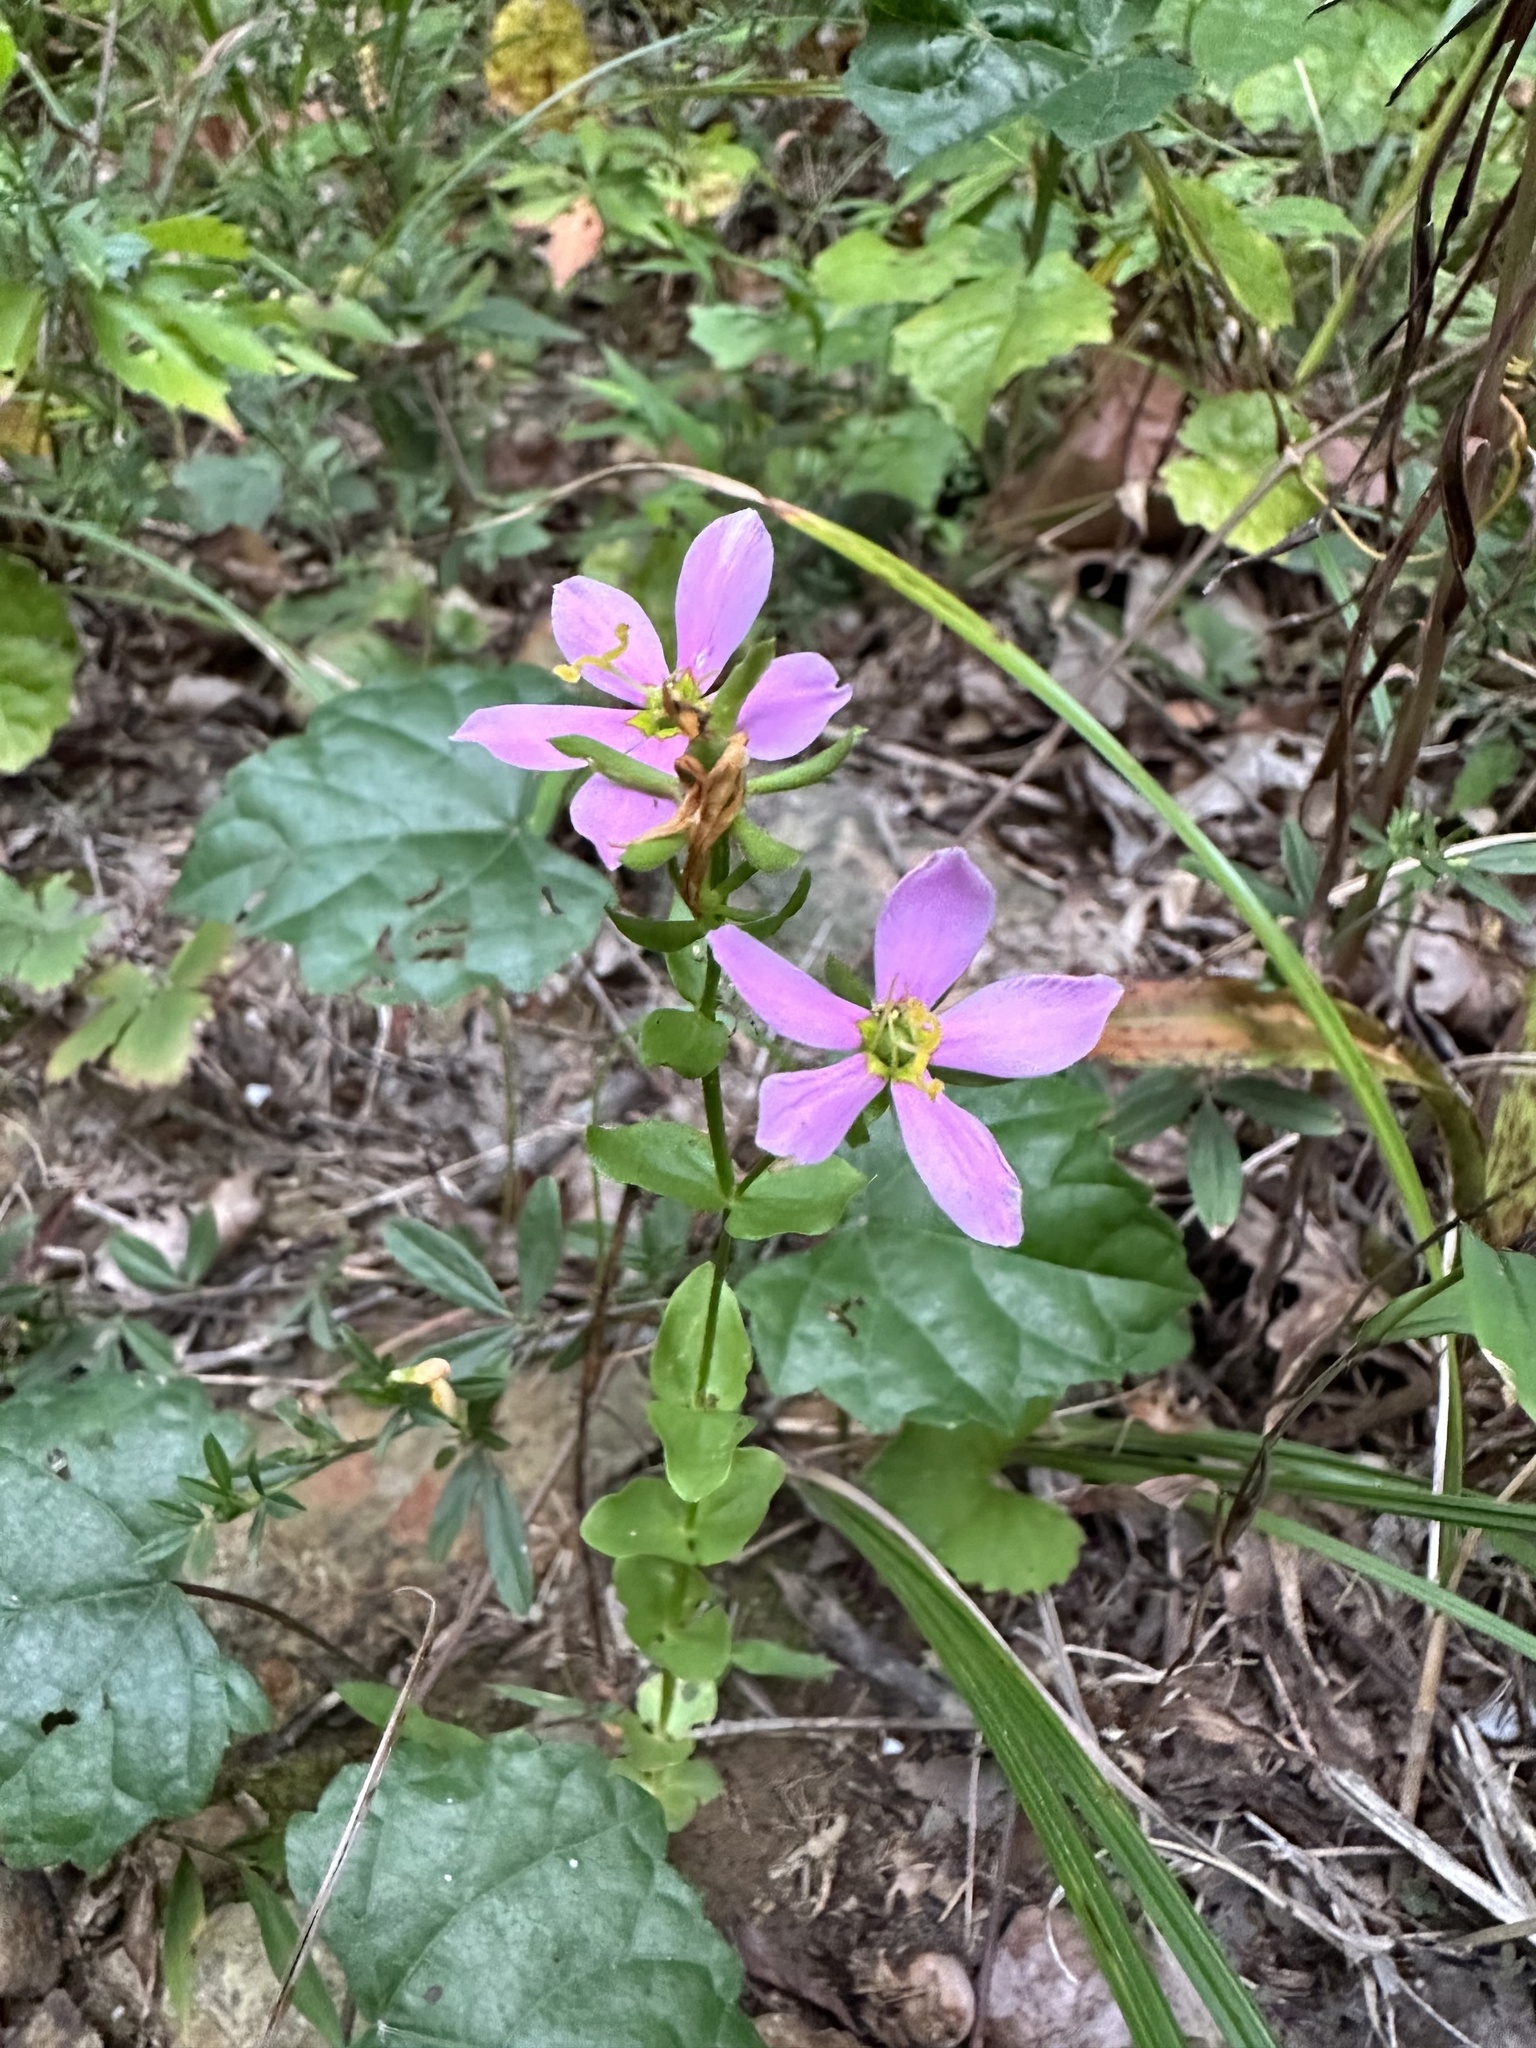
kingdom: Plantae
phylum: Tracheophyta
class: Magnoliopsida
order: Gentianales
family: Gentianaceae
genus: Sabatia
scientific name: Sabatia angularis
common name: Rose-pink
